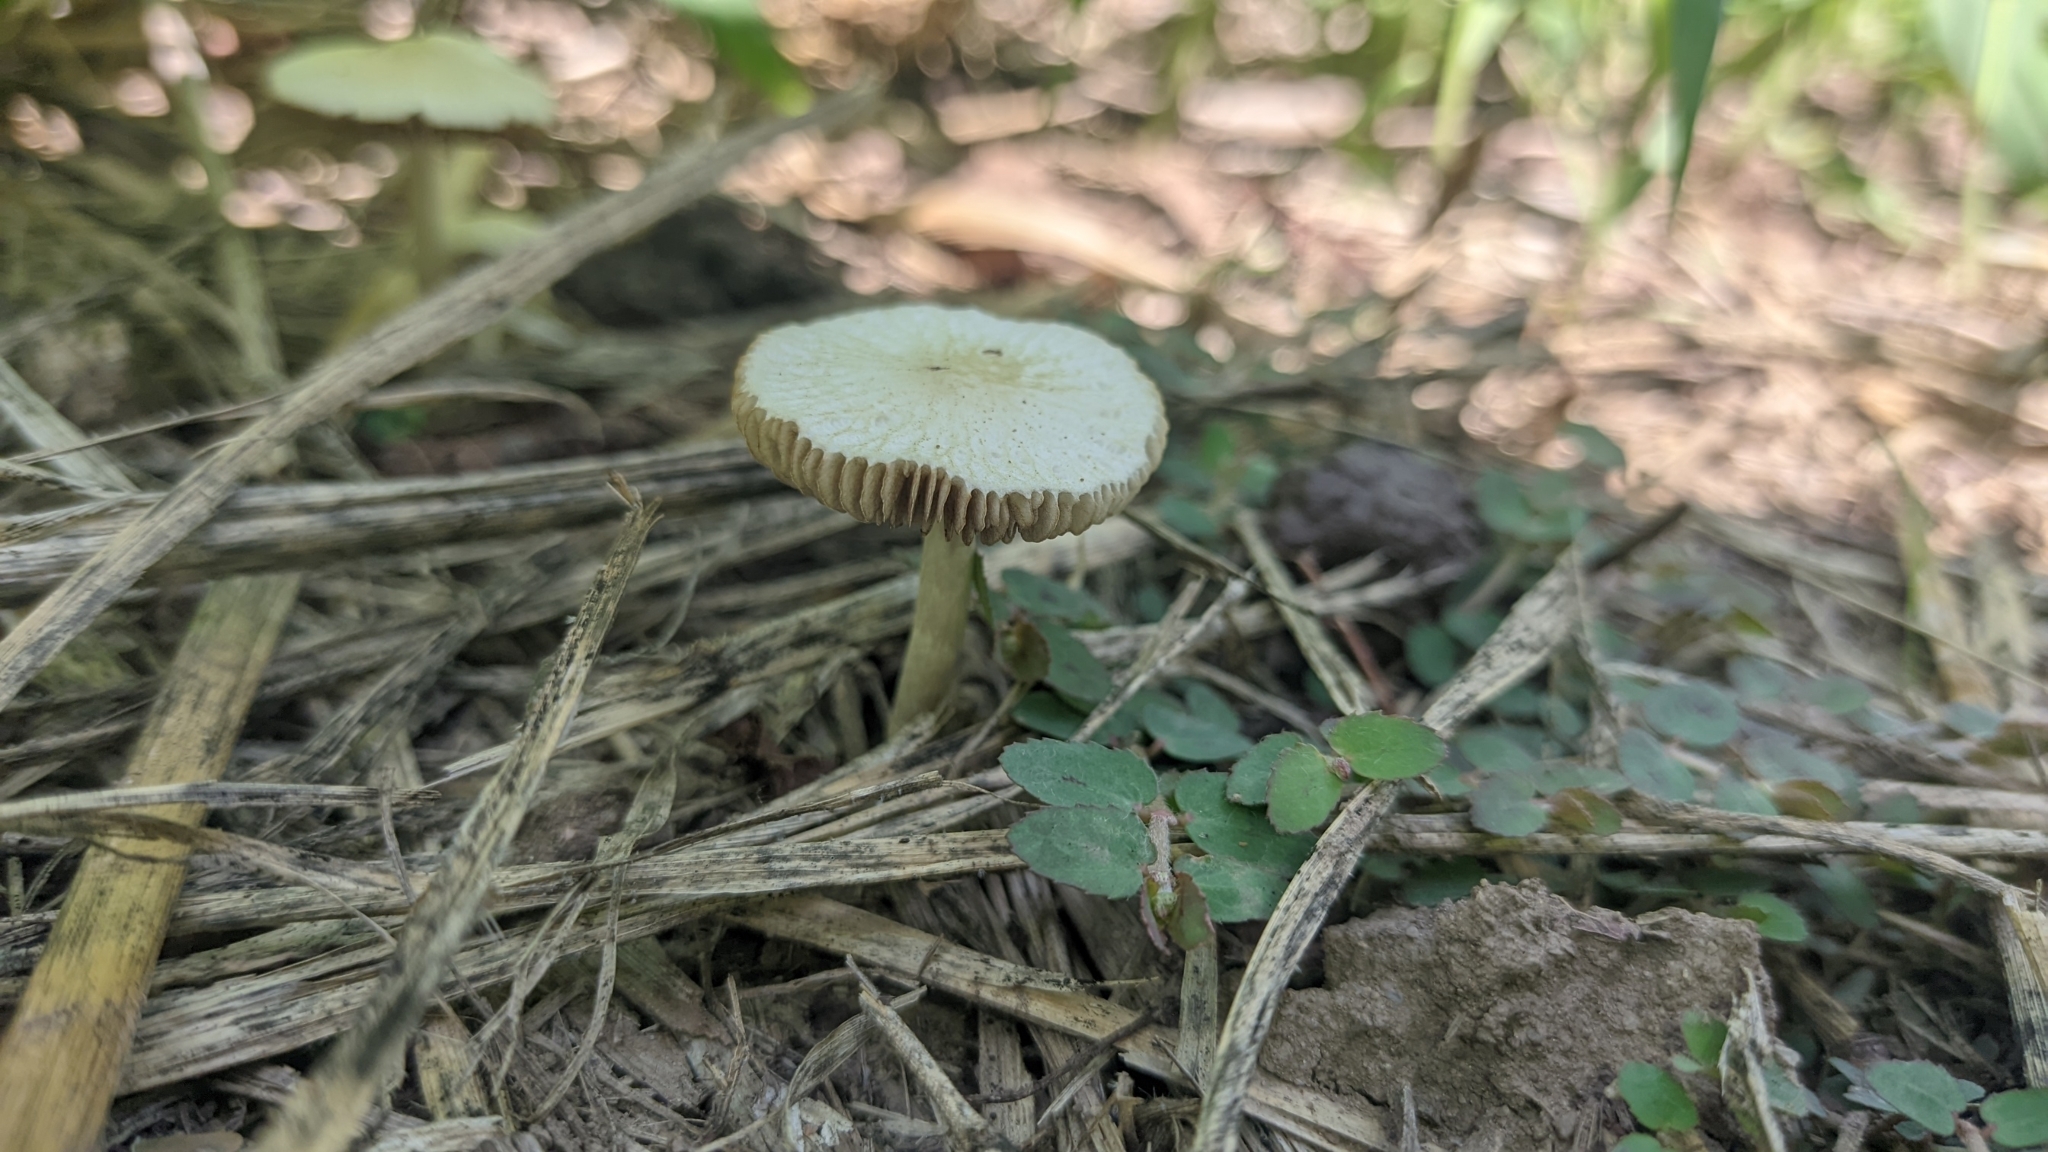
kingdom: Fungi
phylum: Basidiomycota
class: Agaricomycetes
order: Agaricales
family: Bolbitiaceae
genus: Bolbitius
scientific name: Bolbitius titubans
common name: Yellow fieldcap
